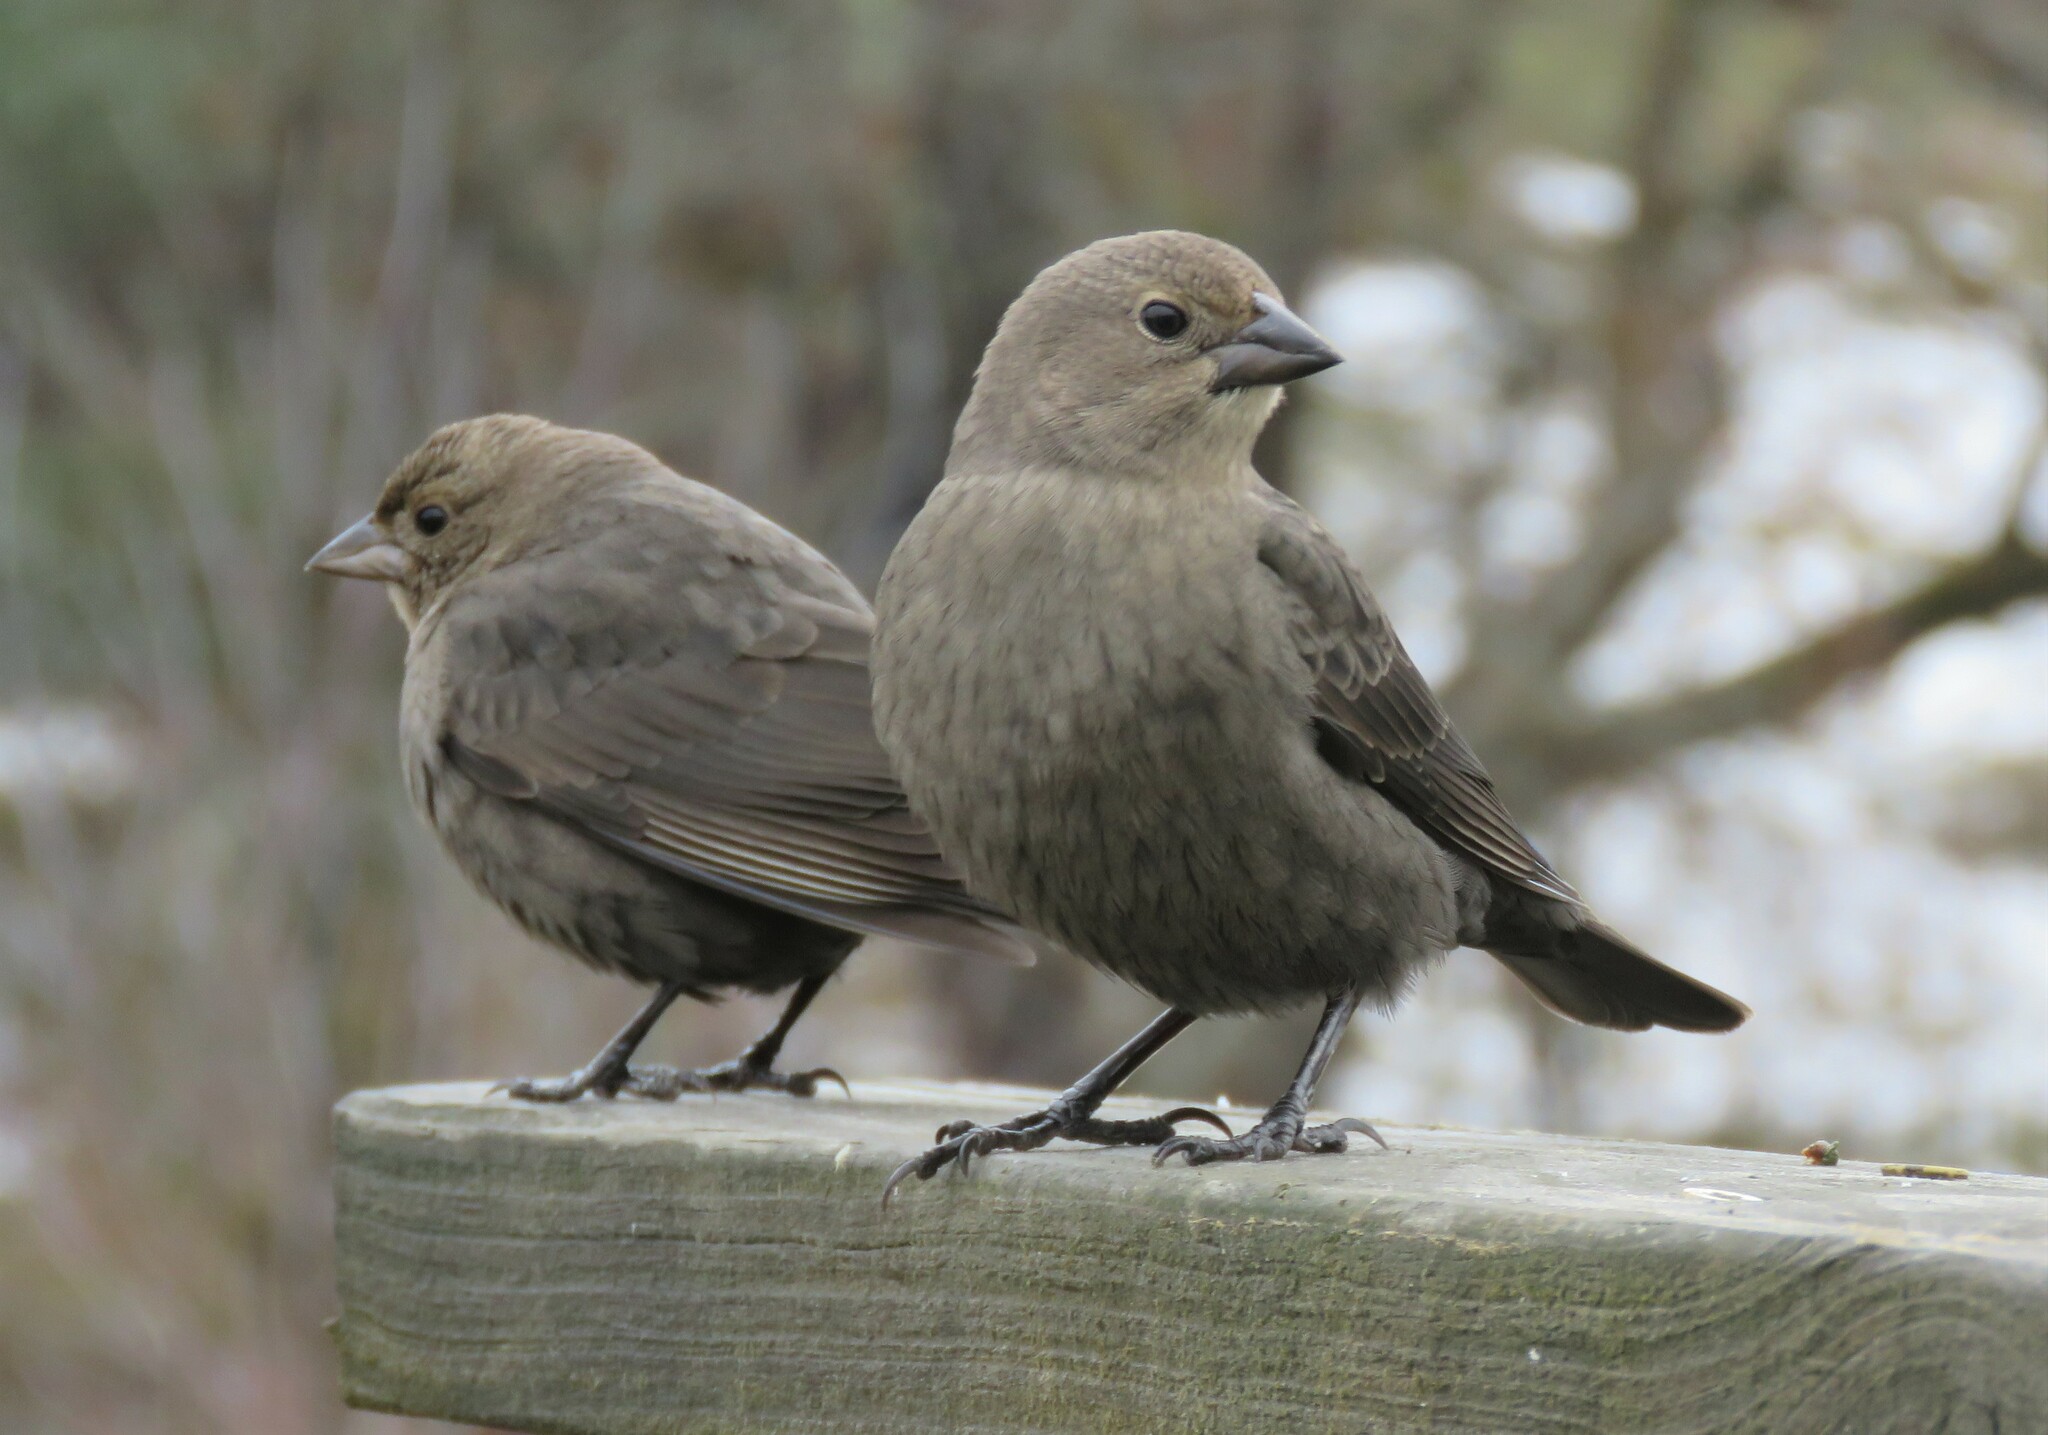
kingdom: Animalia
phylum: Chordata
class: Aves
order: Passeriformes
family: Icteridae
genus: Molothrus
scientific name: Molothrus ater
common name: Brown-headed cowbird
